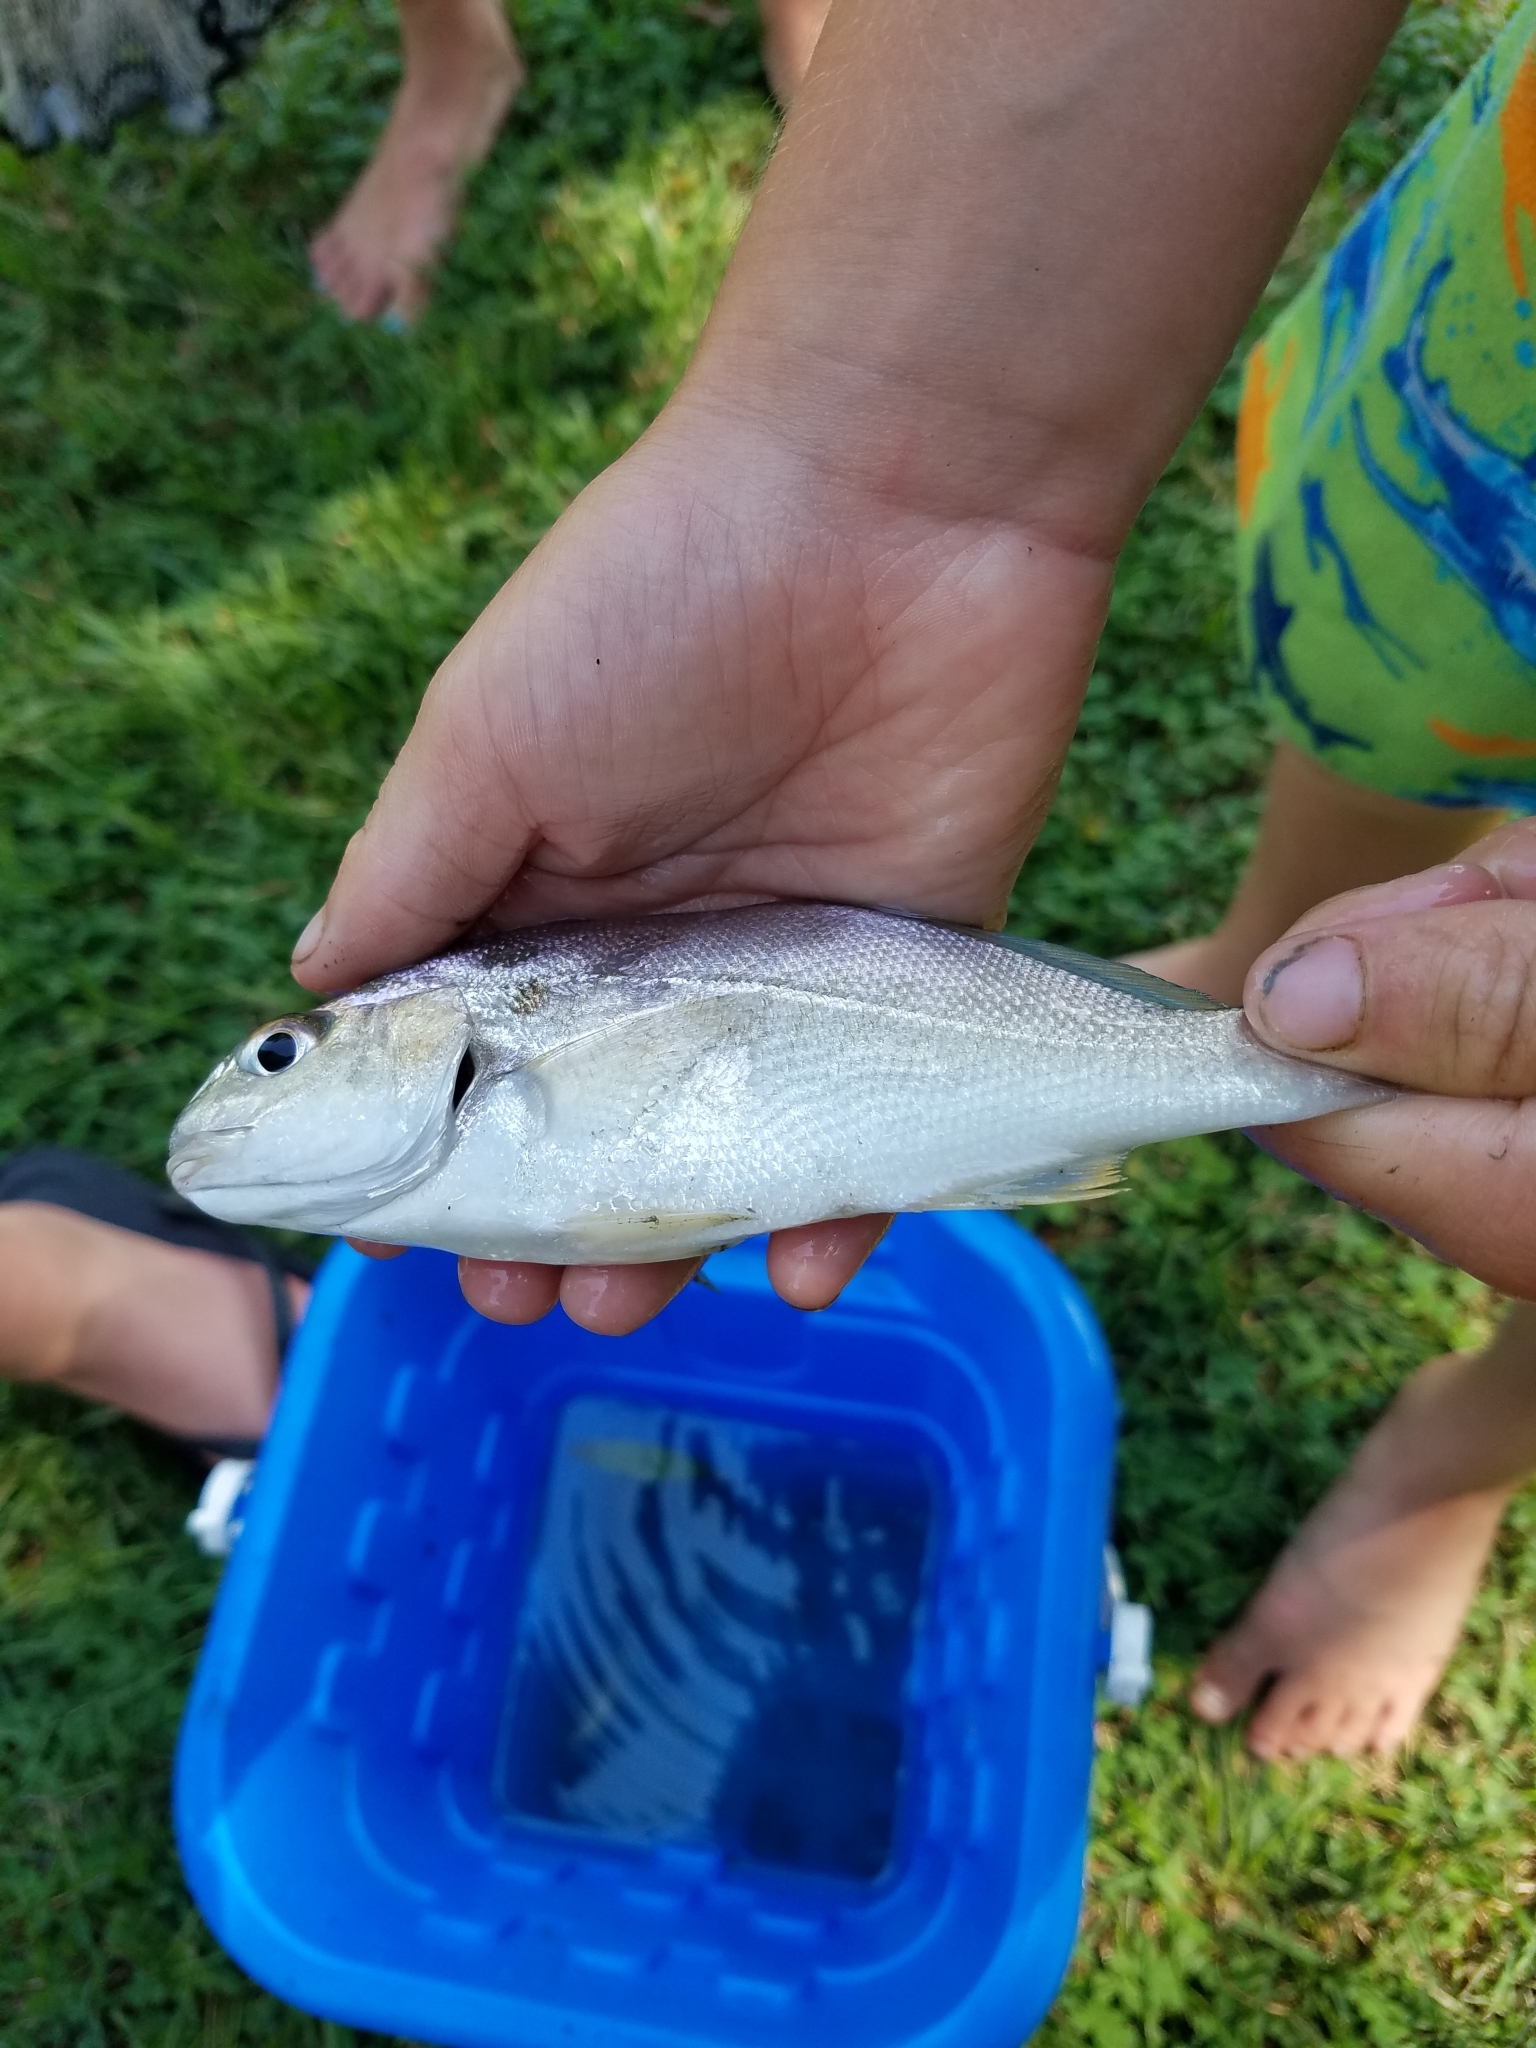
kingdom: Animalia
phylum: Chordata
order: Perciformes
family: Sciaenidae
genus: Leiostomus
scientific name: Leiostomus xanthurus
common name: Spot
